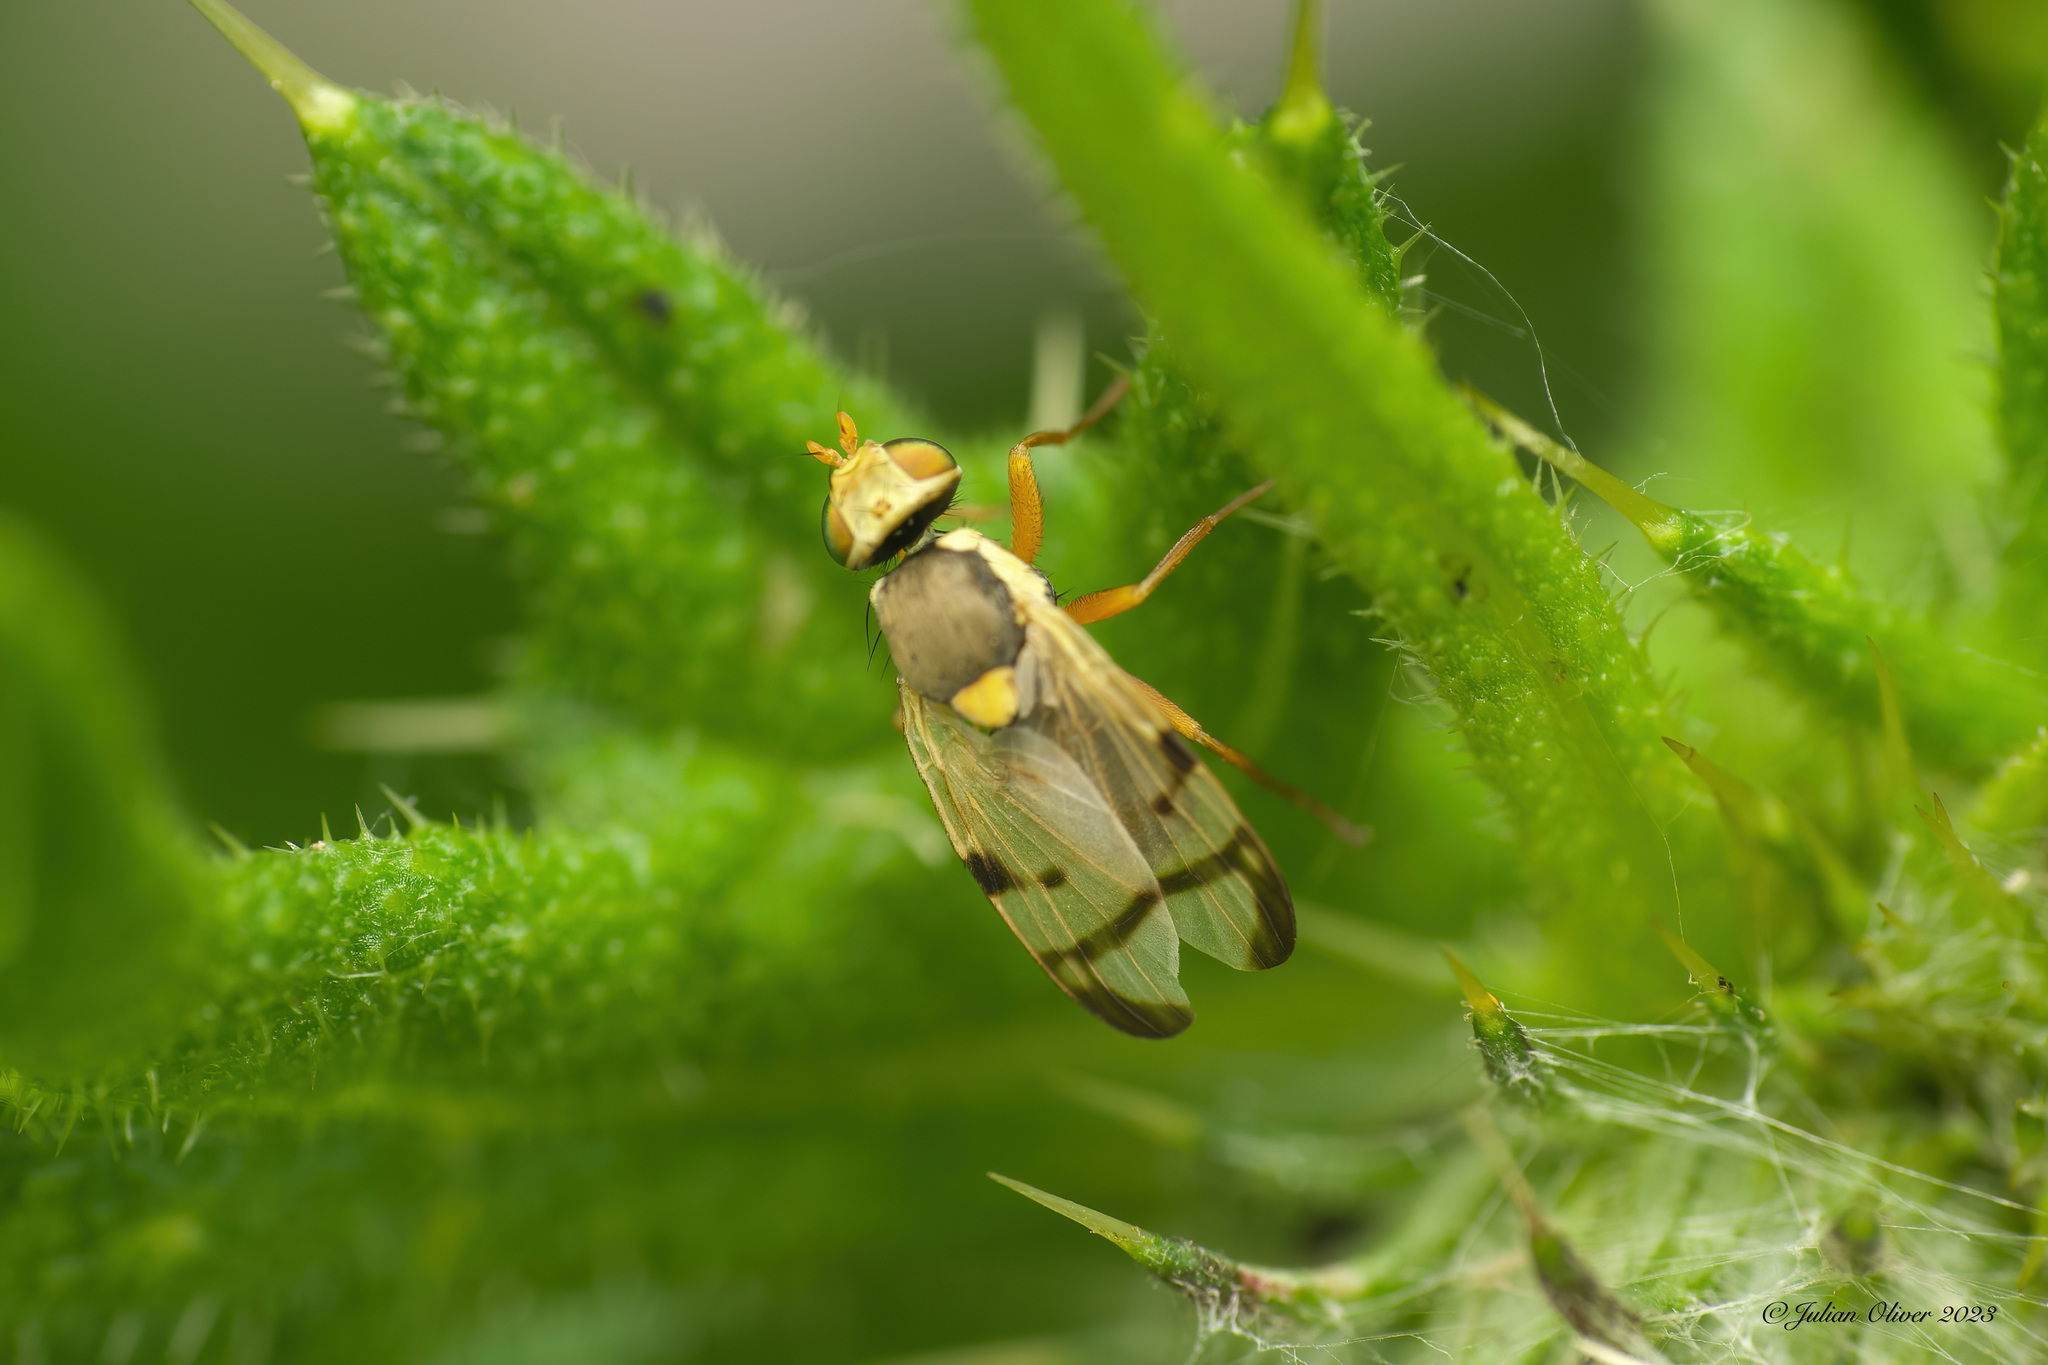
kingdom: Animalia
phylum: Arthropoda
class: Insecta
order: Diptera
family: Tephritidae
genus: Urophora
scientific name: Urophora stylata
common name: Fruit fly
